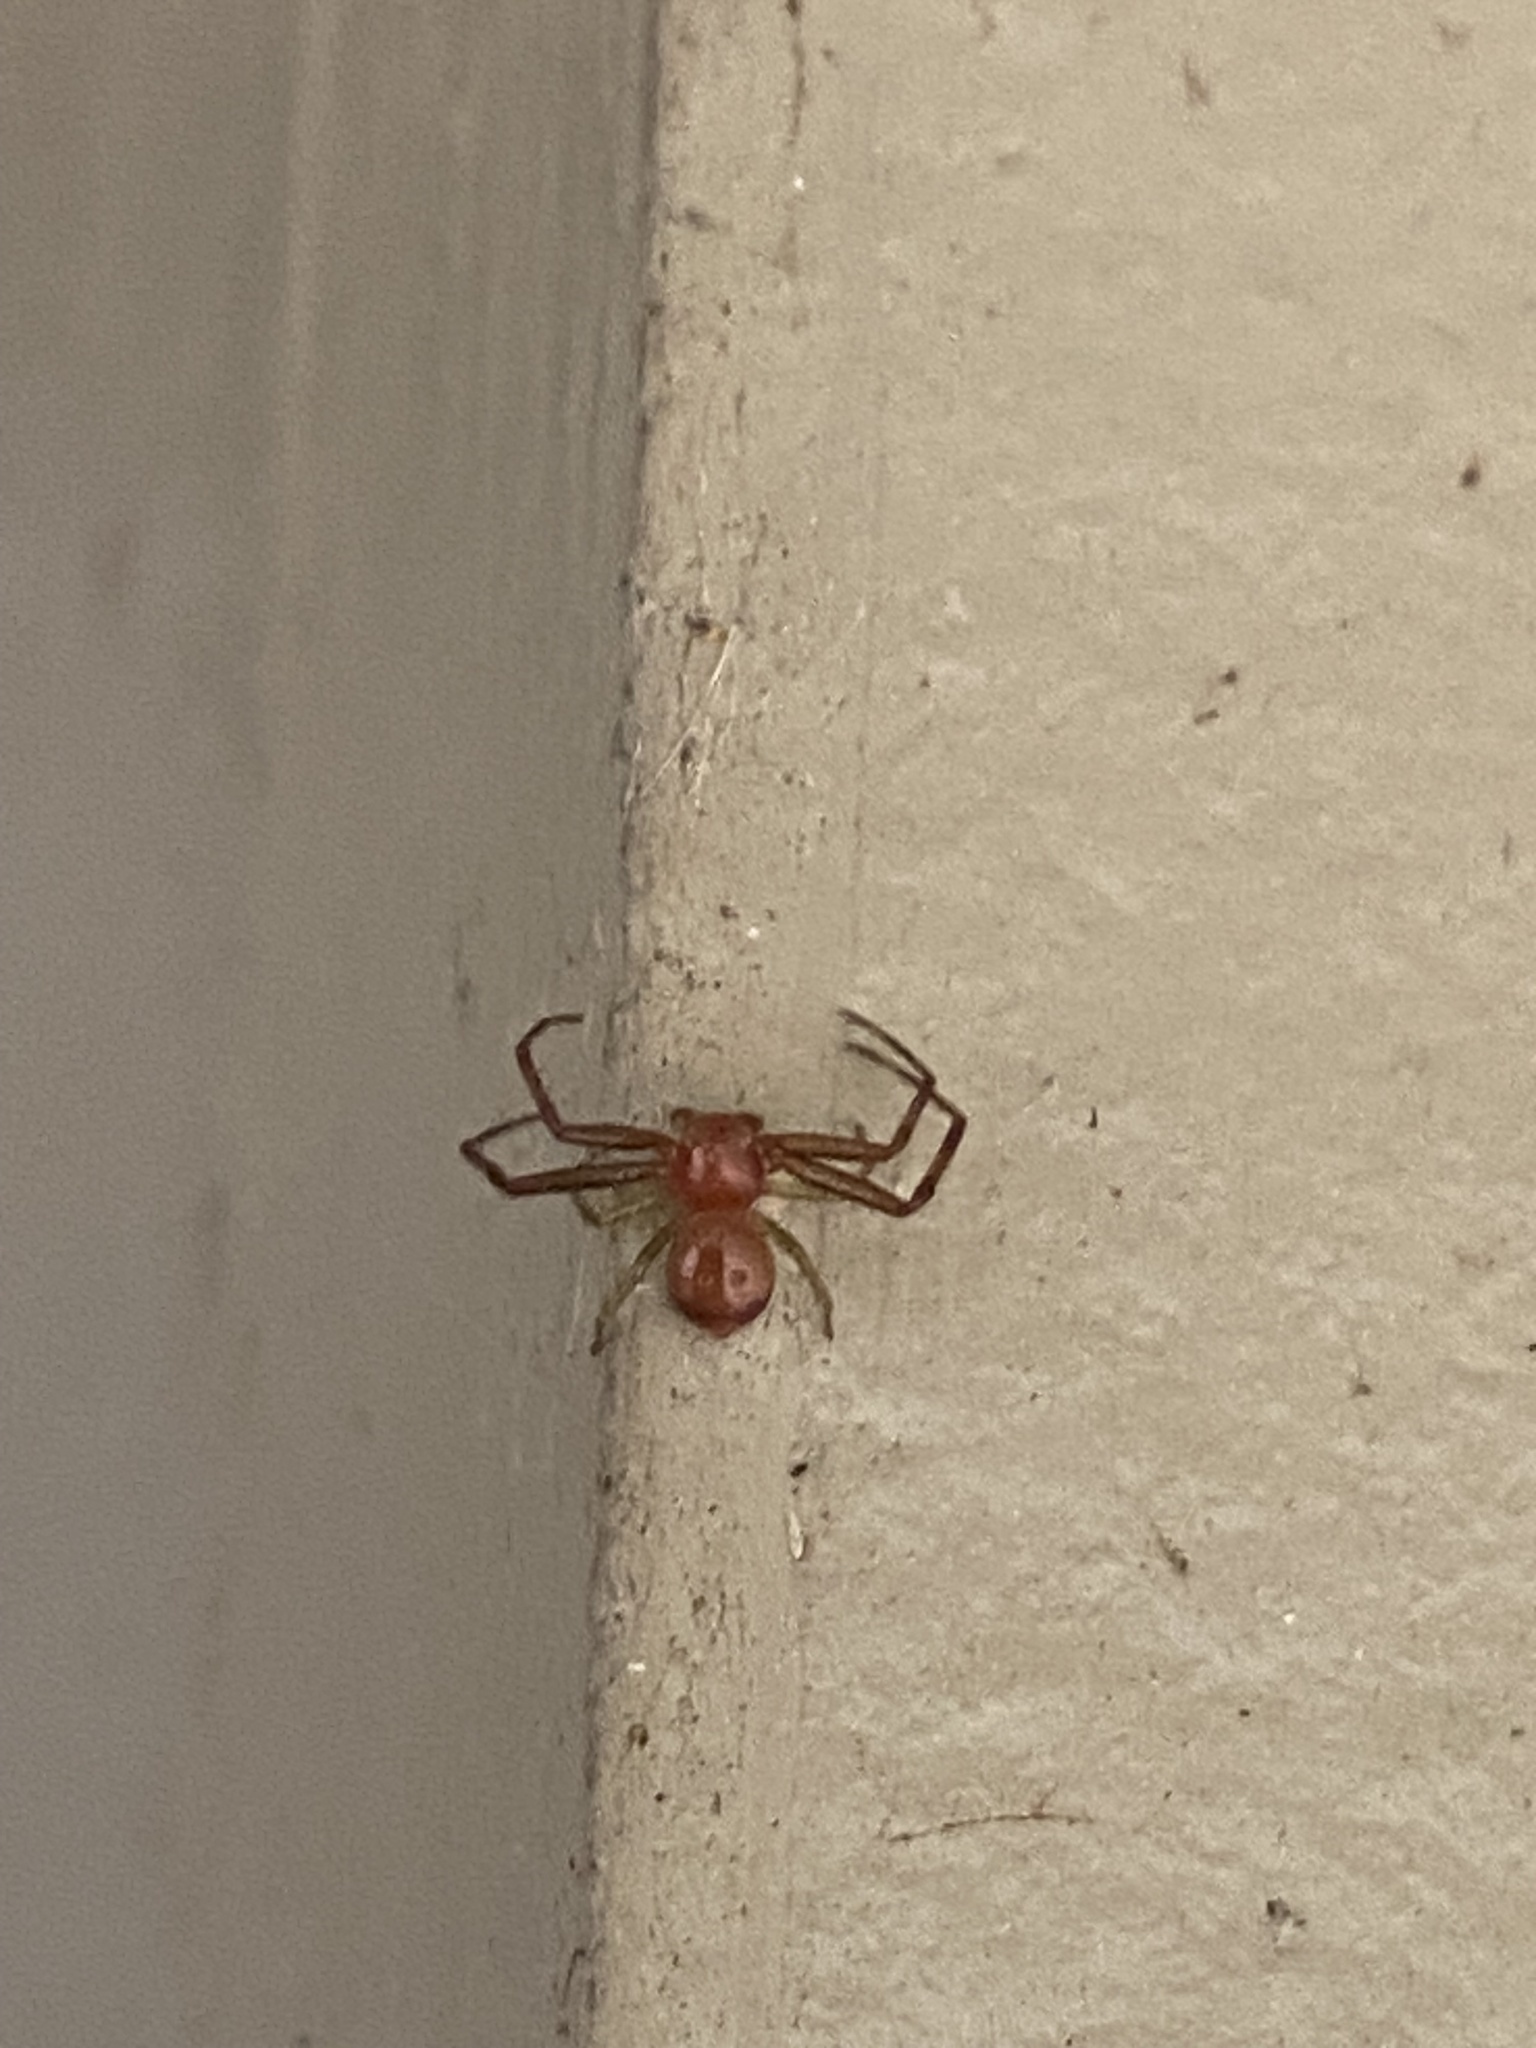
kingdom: Animalia
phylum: Arthropoda
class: Arachnida
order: Araneae
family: Thomisidae
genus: Synema
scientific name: Synema parvulum
